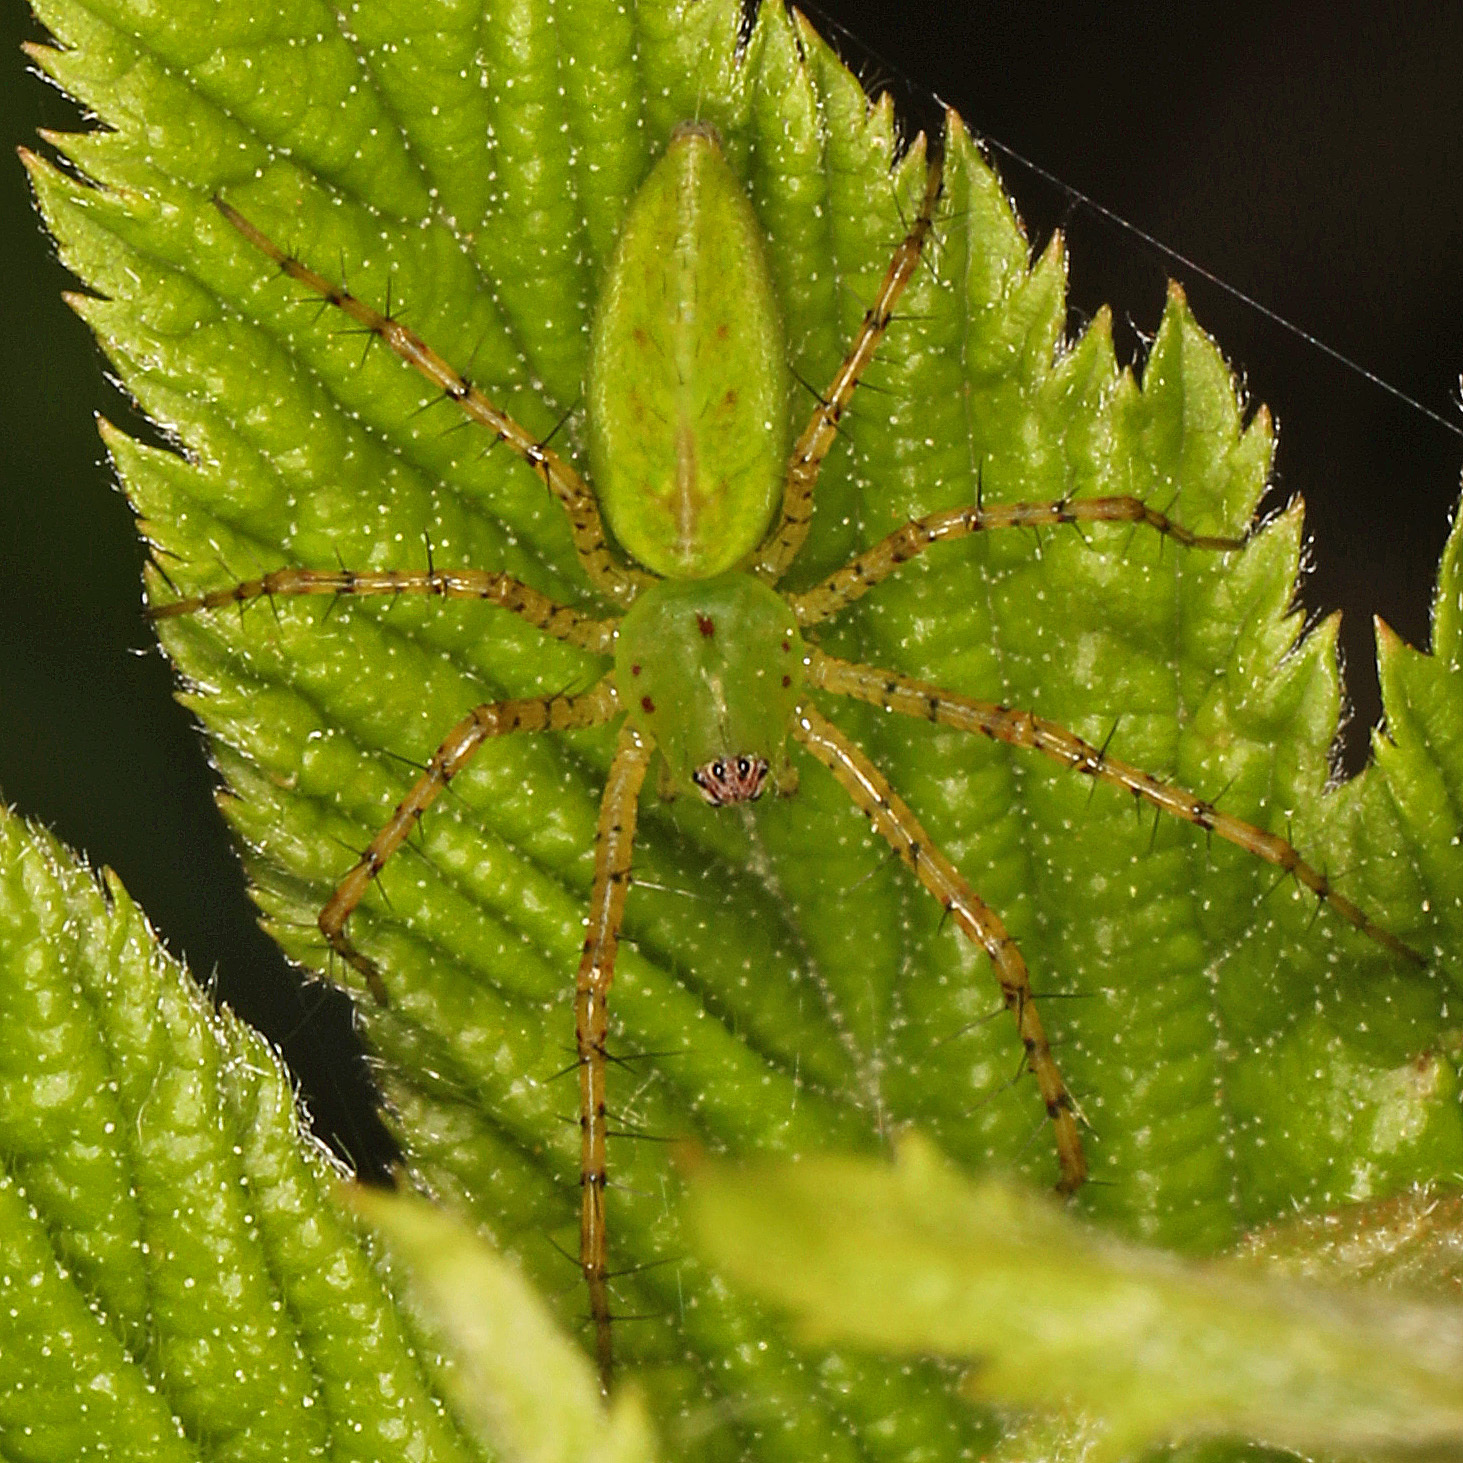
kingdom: Animalia
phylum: Arthropoda
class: Arachnida
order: Araneae
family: Oxyopidae
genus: Peucetia
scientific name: Peucetia viridans
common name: Lynx spiders
